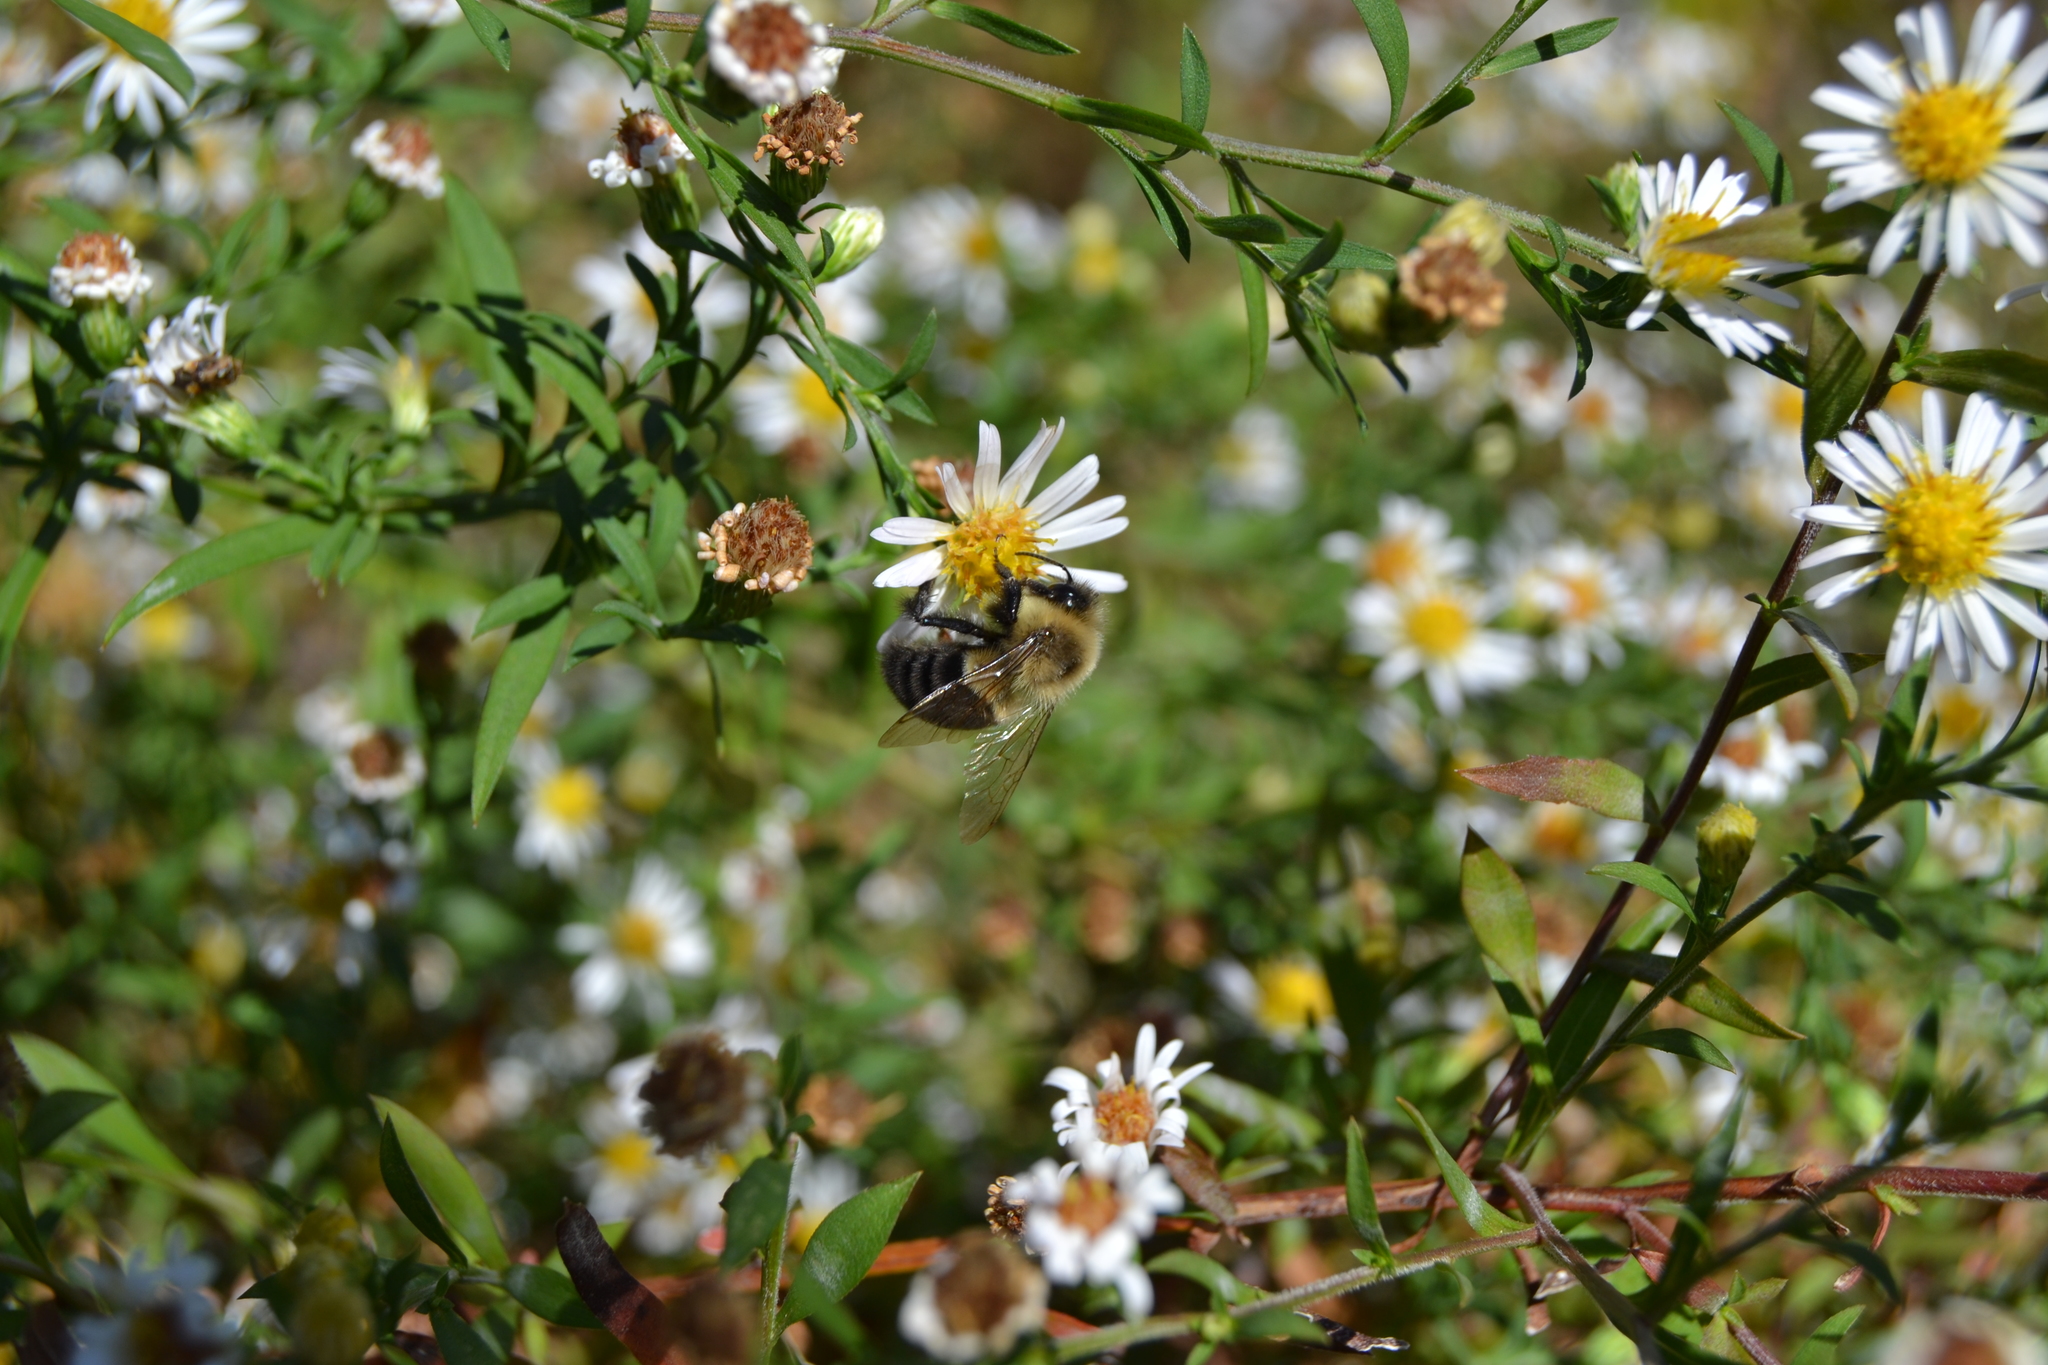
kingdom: Animalia
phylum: Arthropoda
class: Insecta
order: Hymenoptera
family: Apidae
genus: Bombus
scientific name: Bombus impatiens
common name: Common eastern bumble bee
